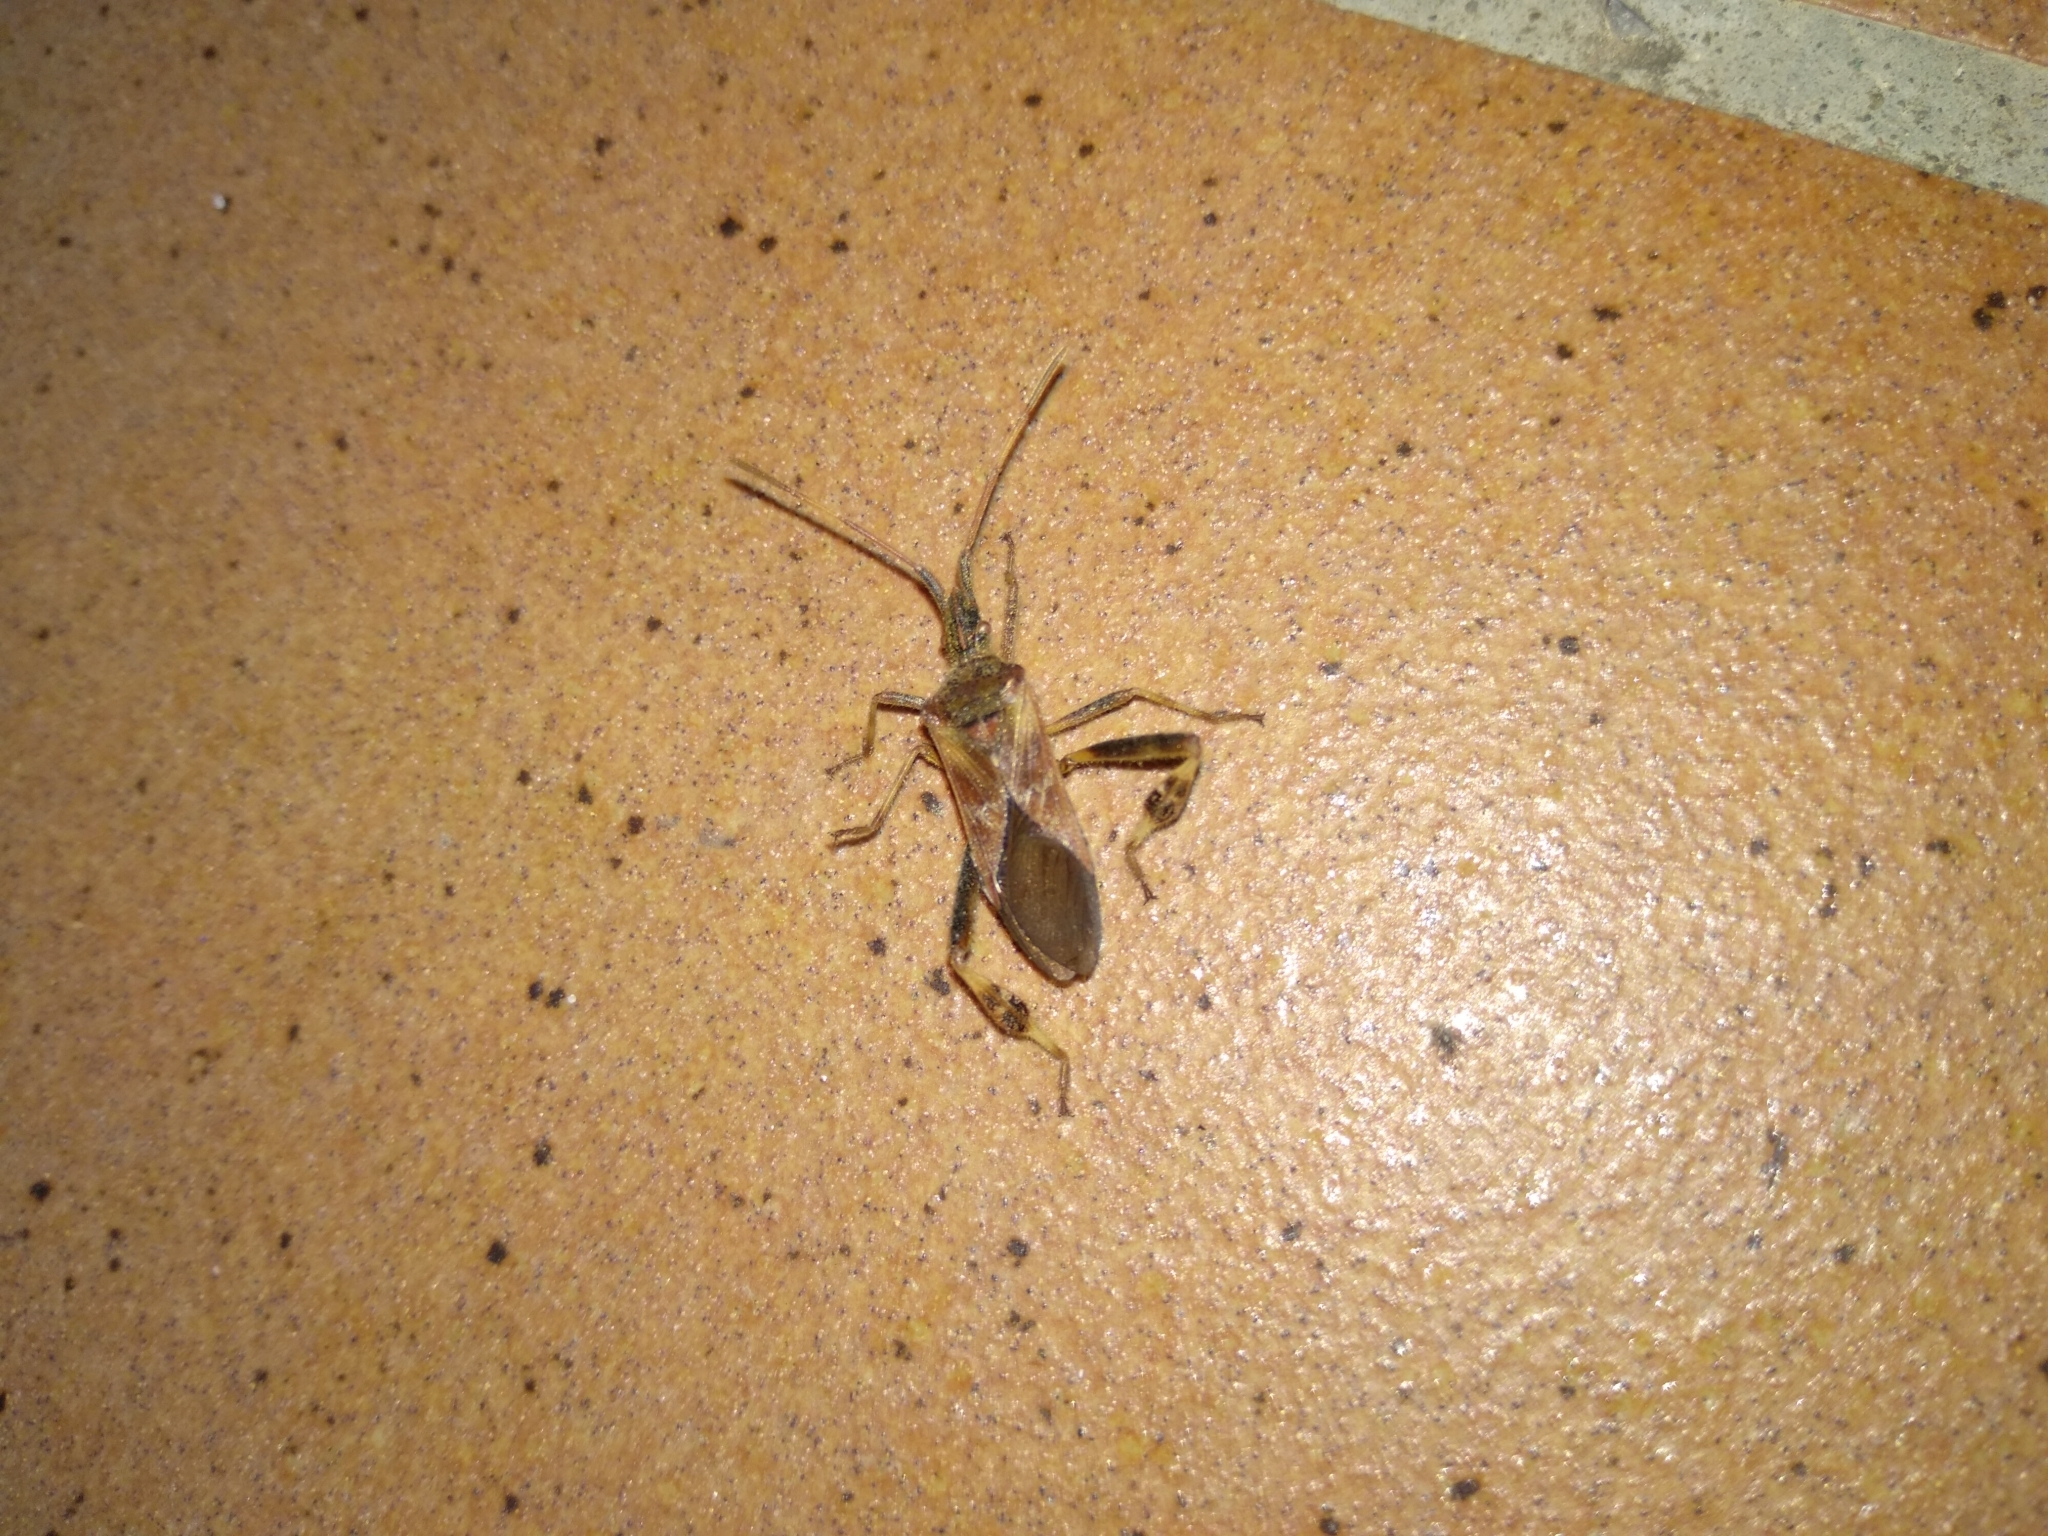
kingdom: Animalia
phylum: Arthropoda
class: Insecta
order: Hemiptera
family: Coreidae
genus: Leptoglossus
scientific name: Leptoglossus occidentalis
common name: Western conifer-seed bug
